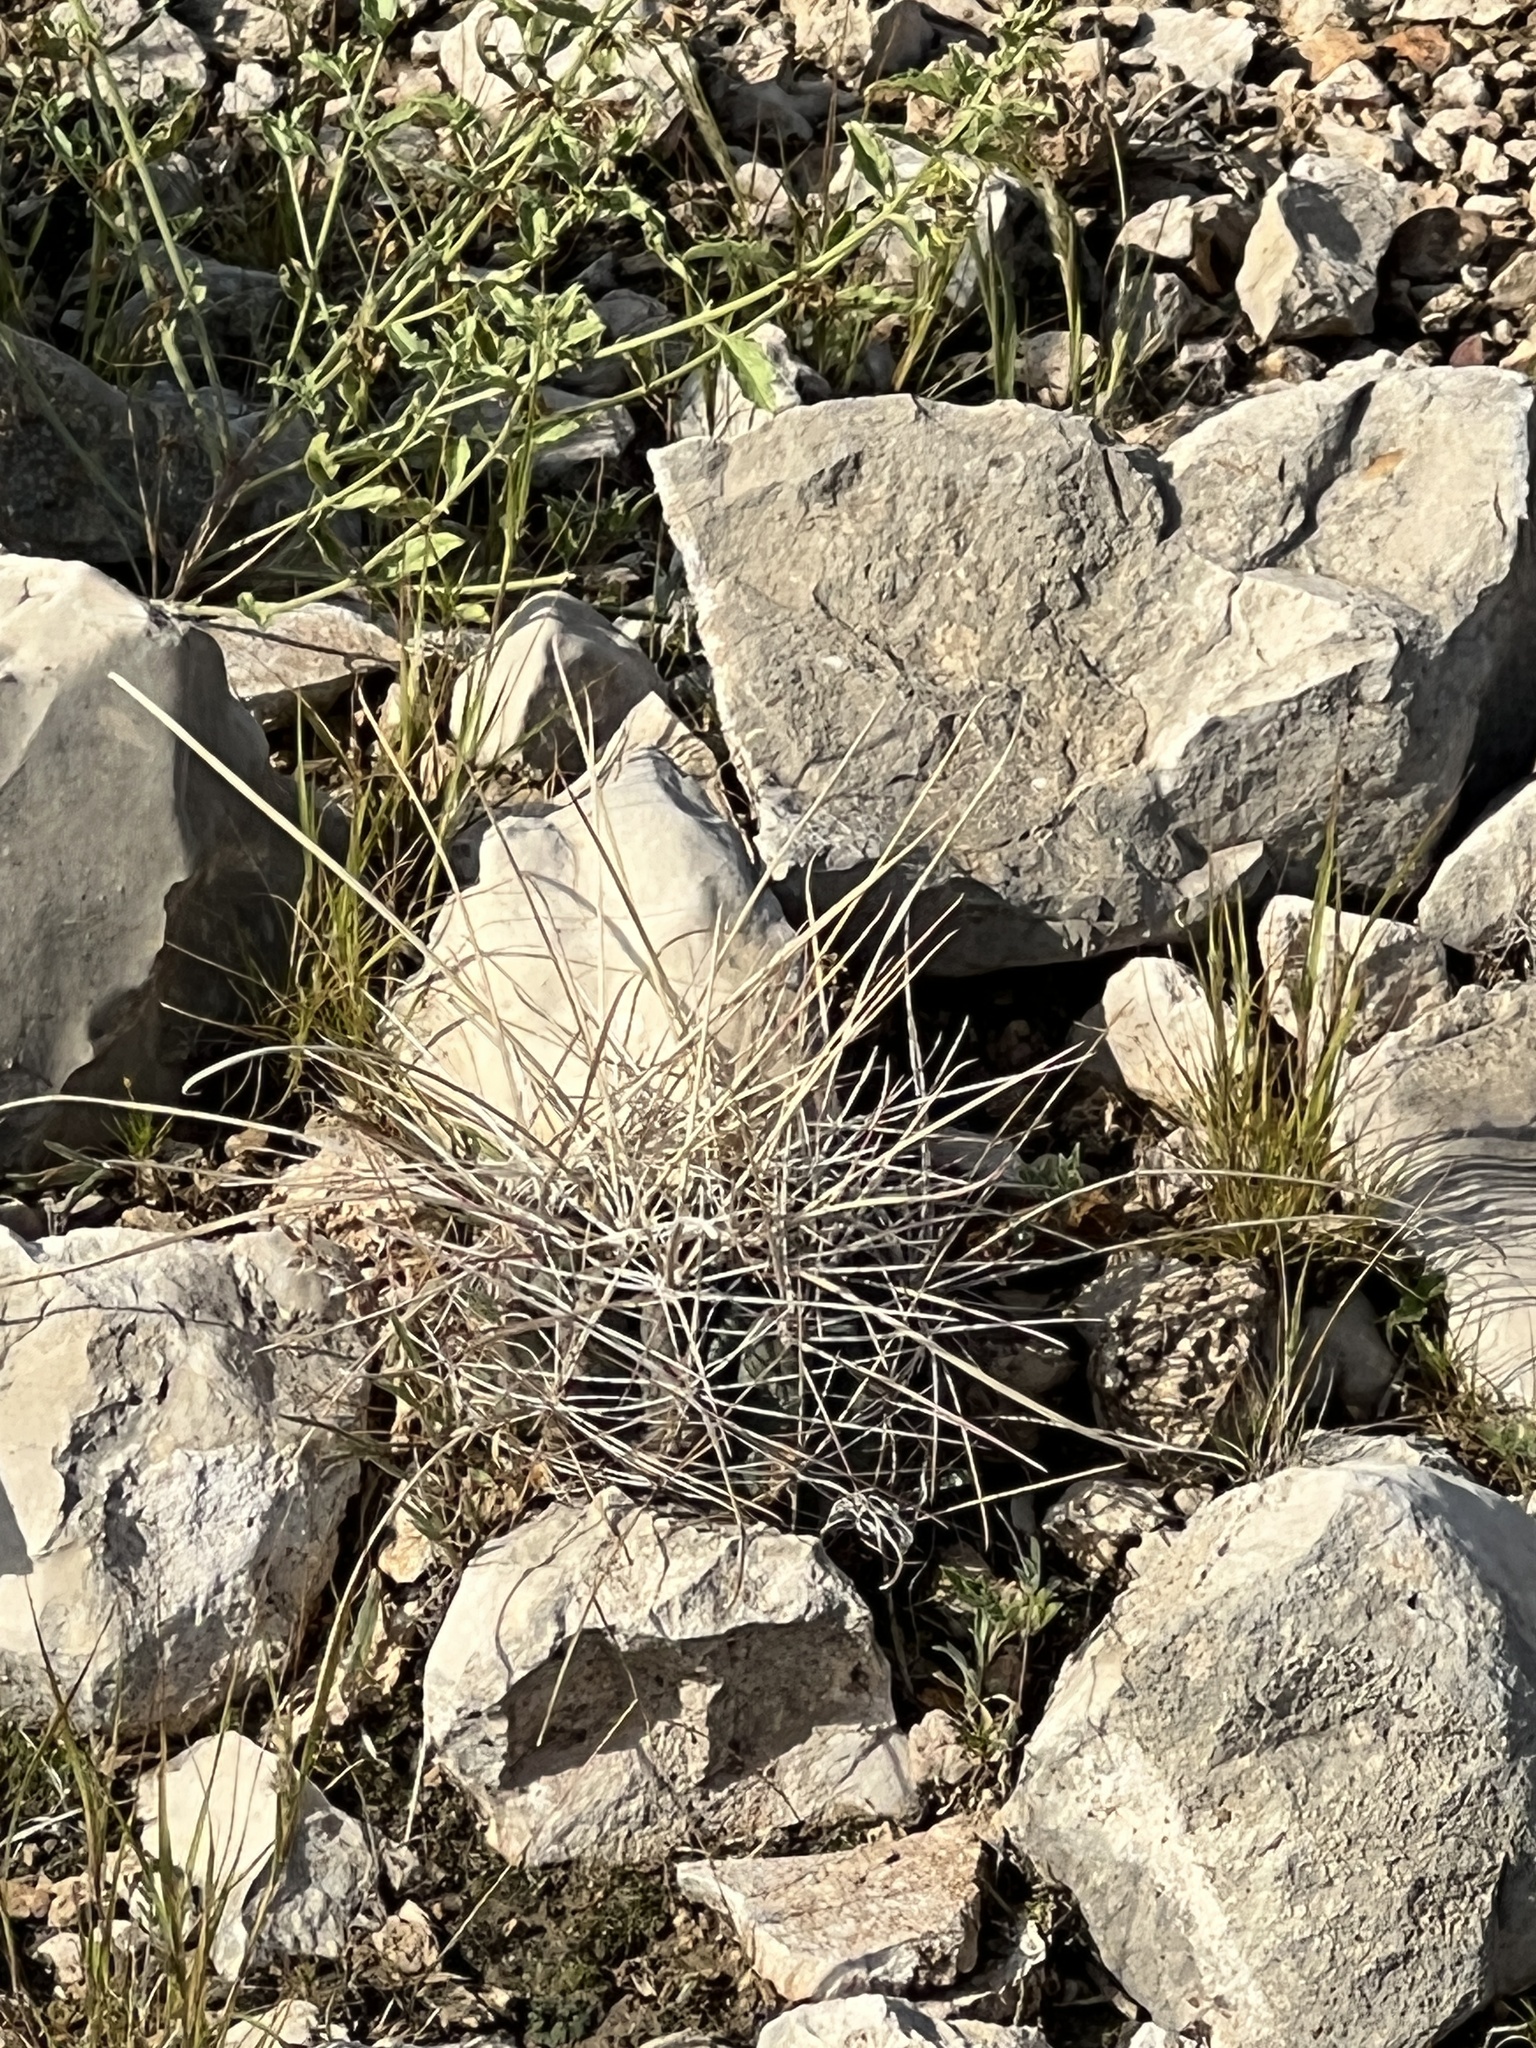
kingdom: Plantae
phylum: Tracheophyta
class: Magnoliopsida
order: Caryophyllales
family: Cactaceae
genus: Bisnaga
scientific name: Bisnaga hamatacantha
